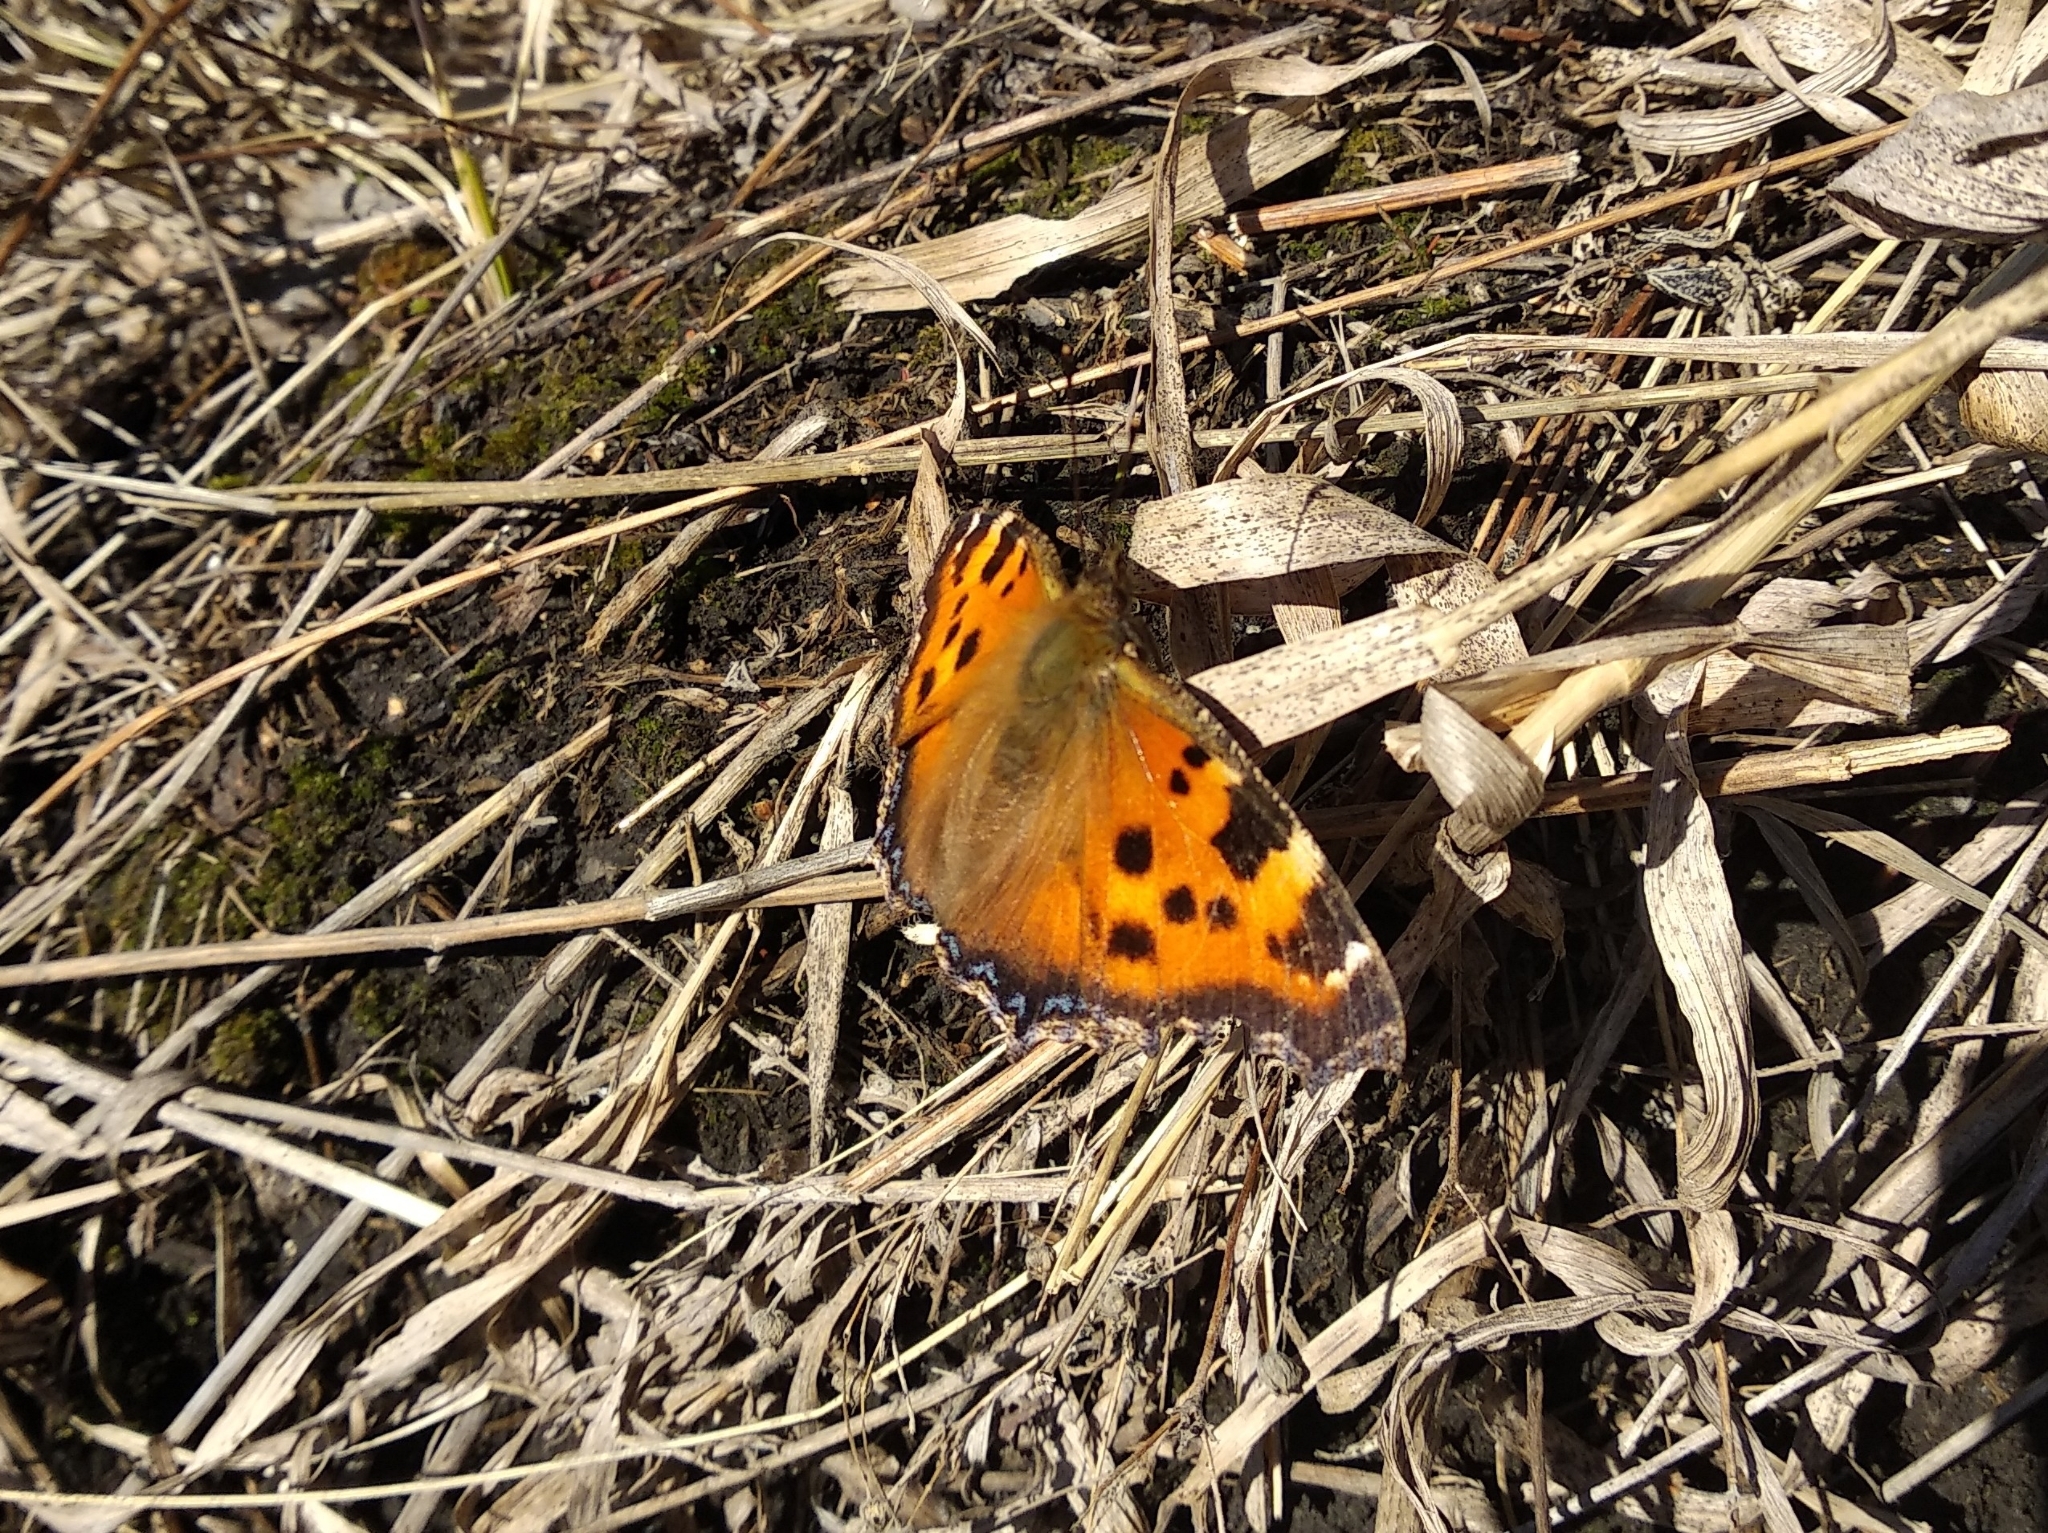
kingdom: Animalia
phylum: Arthropoda
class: Insecta
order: Lepidoptera
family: Nymphalidae
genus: Nymphalis
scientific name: Nymphalis xanthomelas
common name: Scarce tortoiseshell
